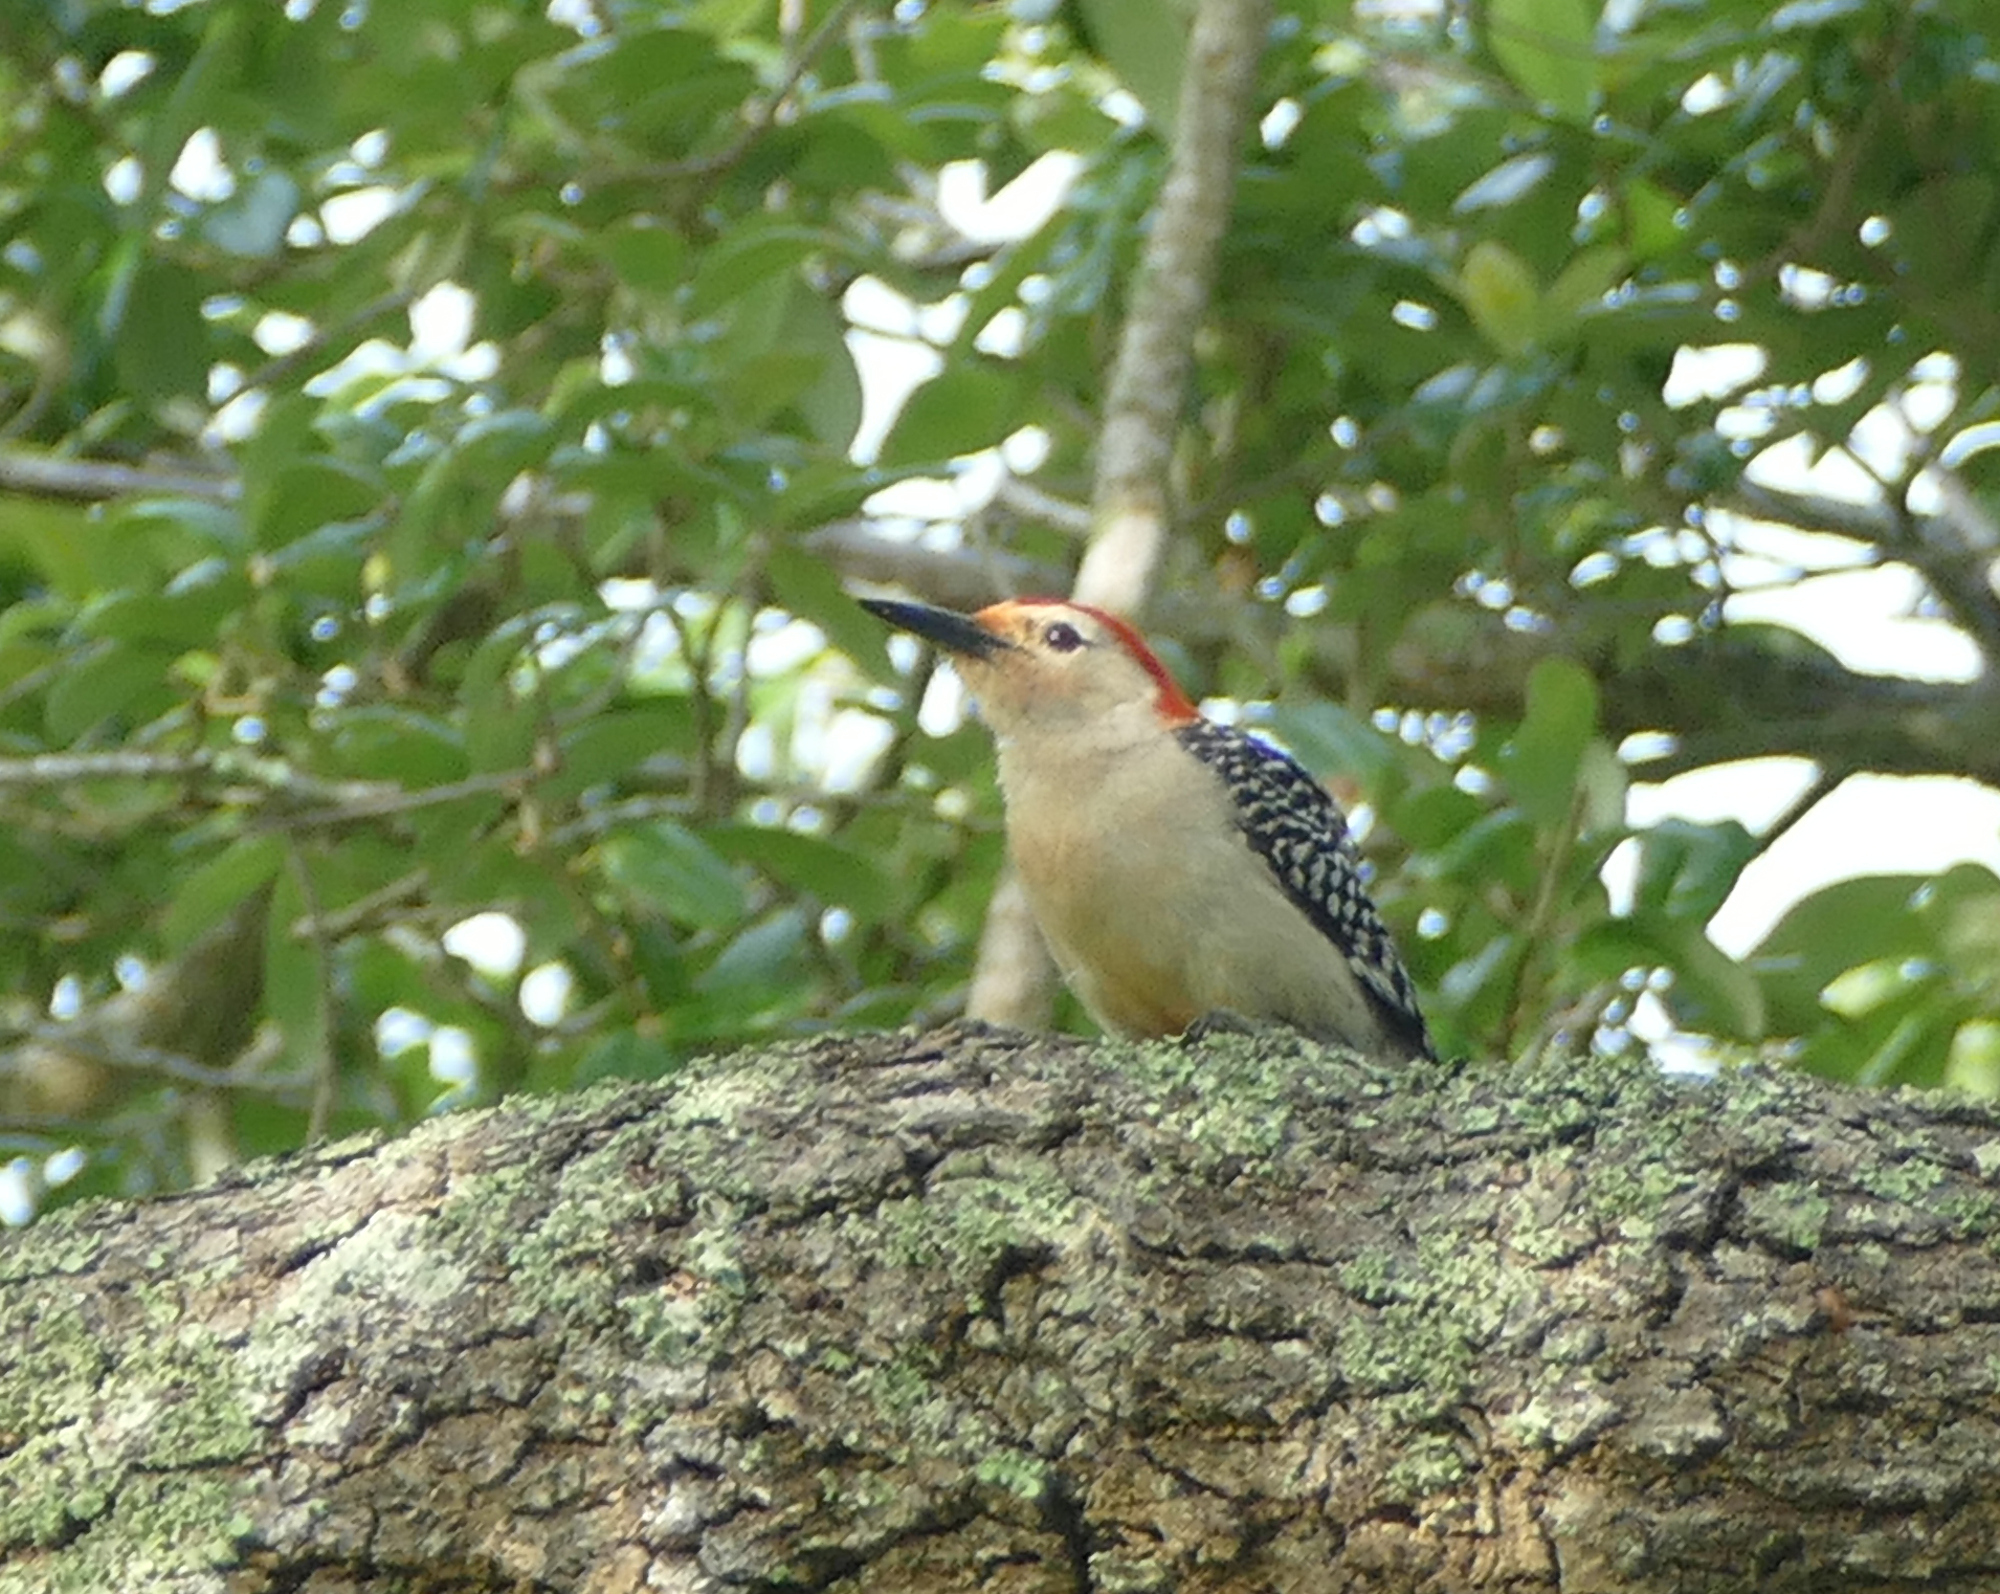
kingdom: Animalia
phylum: Chordata
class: Aves
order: Piciformes
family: Picidae
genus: Melanerpes
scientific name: Melanerpes carolinus
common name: Red-bellied woodpecker
